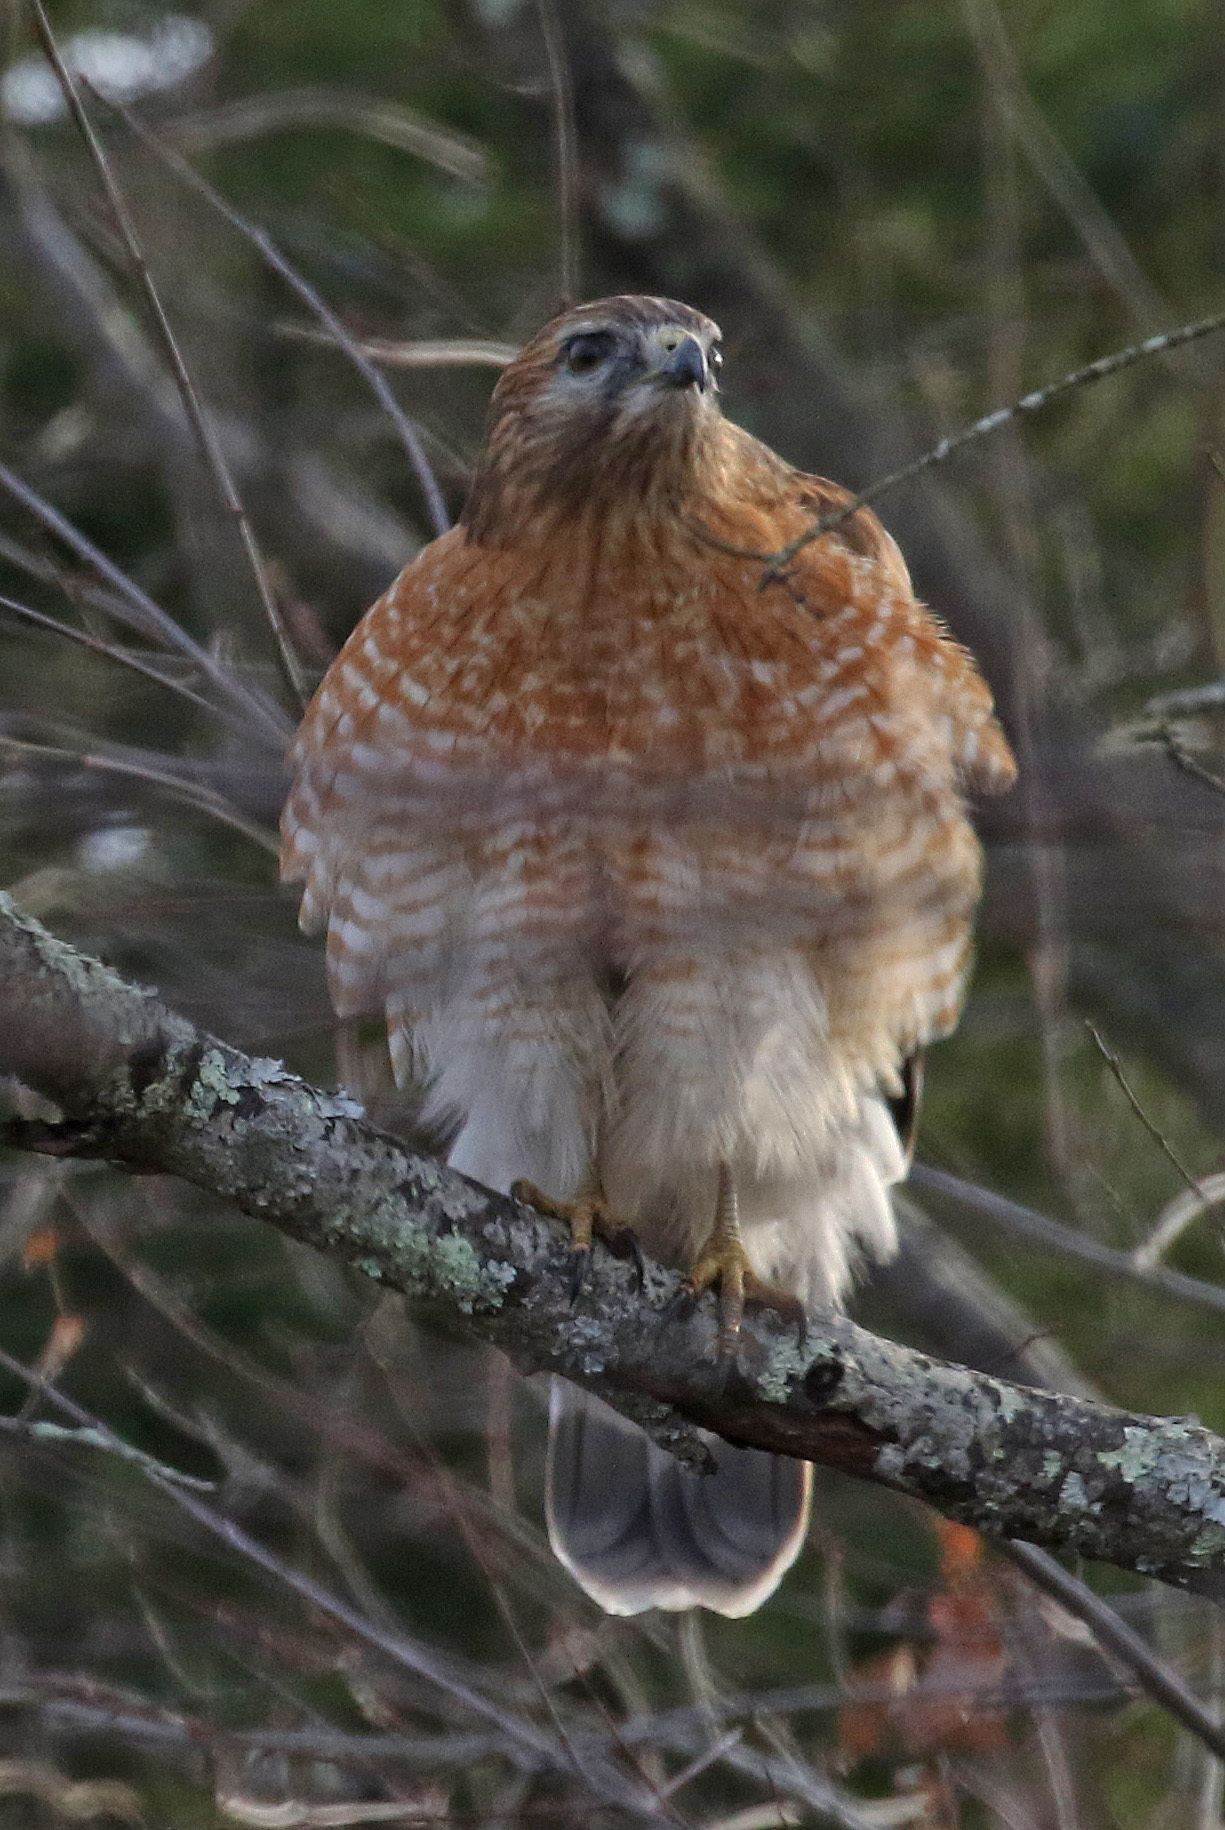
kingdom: Animalia
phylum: Chordata
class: Aves
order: Accipitriformes
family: Accipitridae
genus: Buteo
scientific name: Buteo lineatus
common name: Red-shouldered hawk
